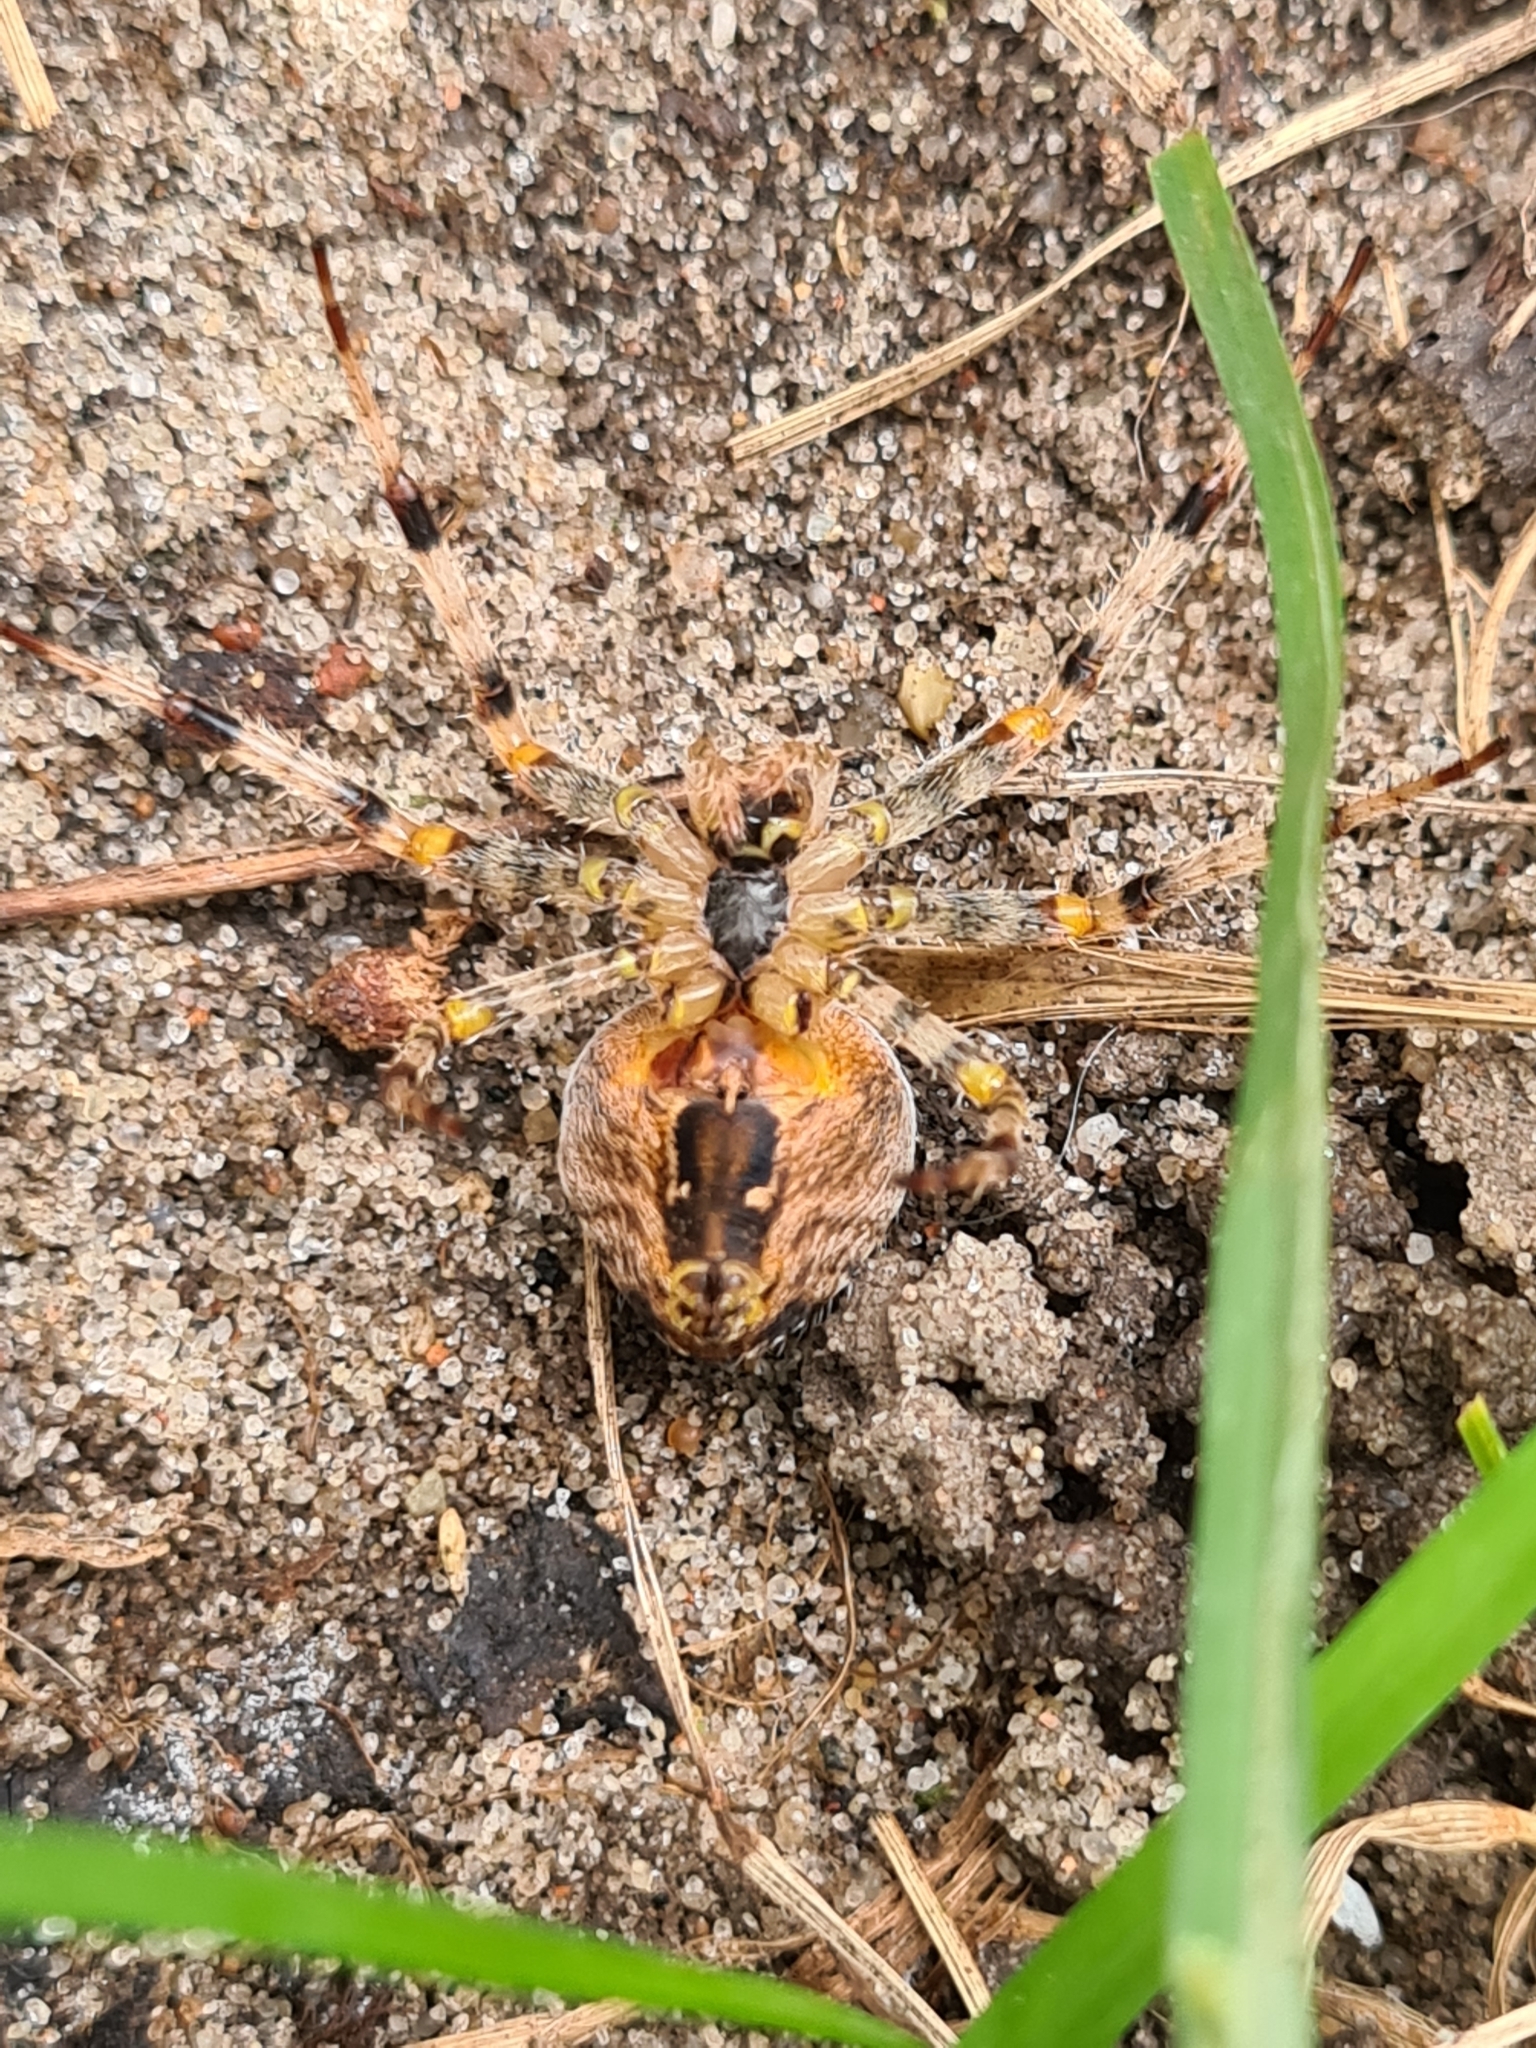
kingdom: Animalia
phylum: Arthropoda
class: Arachnida
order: Araneae
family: Araneidae
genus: Araneus
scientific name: Araneus diadematus
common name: Cross orbweaver
